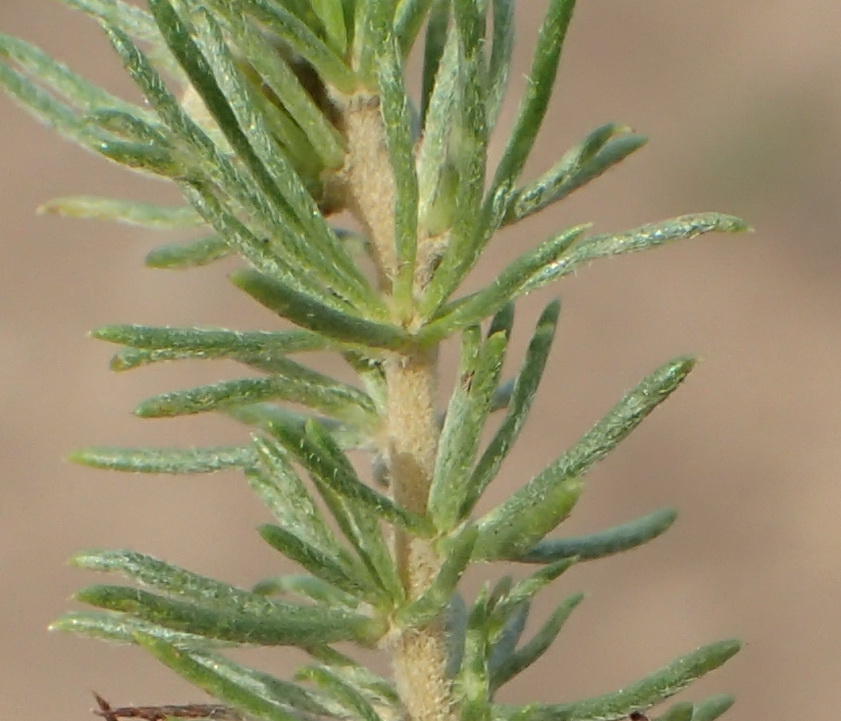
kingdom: Plantae
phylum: Tracheophyta
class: Magnoliopsida
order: Fabales
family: Fabaceae
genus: Aspalathus
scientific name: Aspalathus kougaensis
